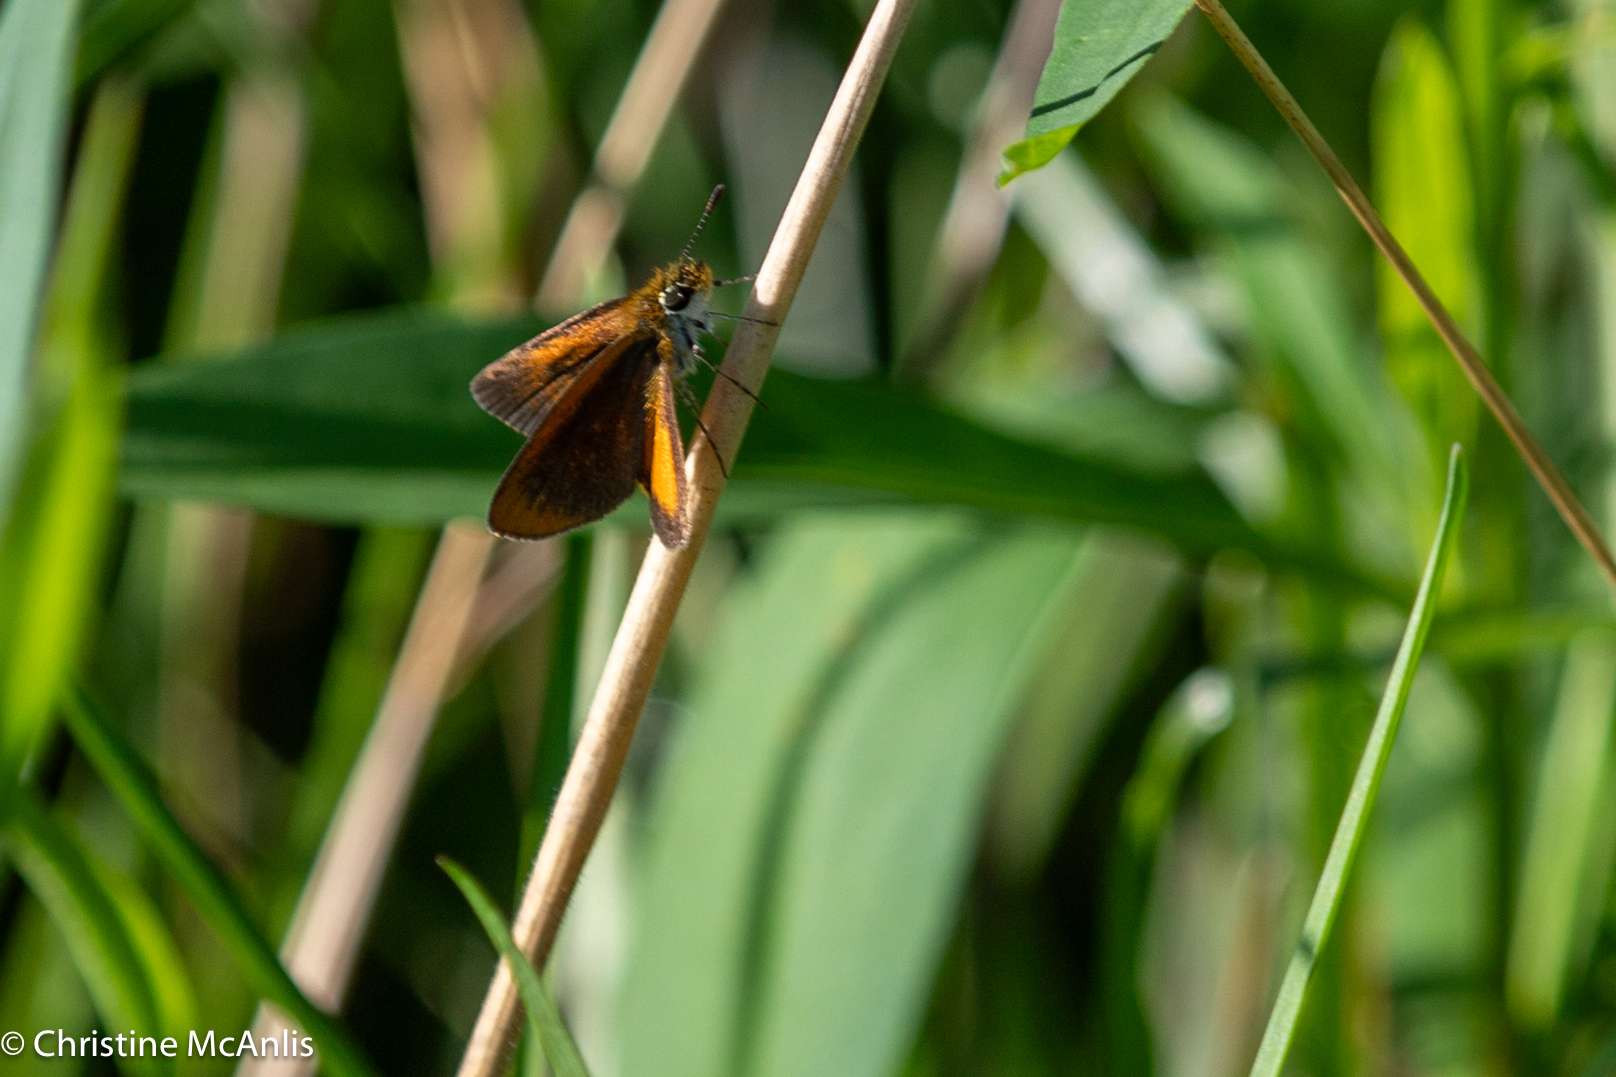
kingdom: Animalia
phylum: Arthropoda
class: Insecta
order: Lepidoptera
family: Hesperiidae
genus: Ancyloxypha
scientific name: Ancyloxypha numitor
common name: Least skipper
